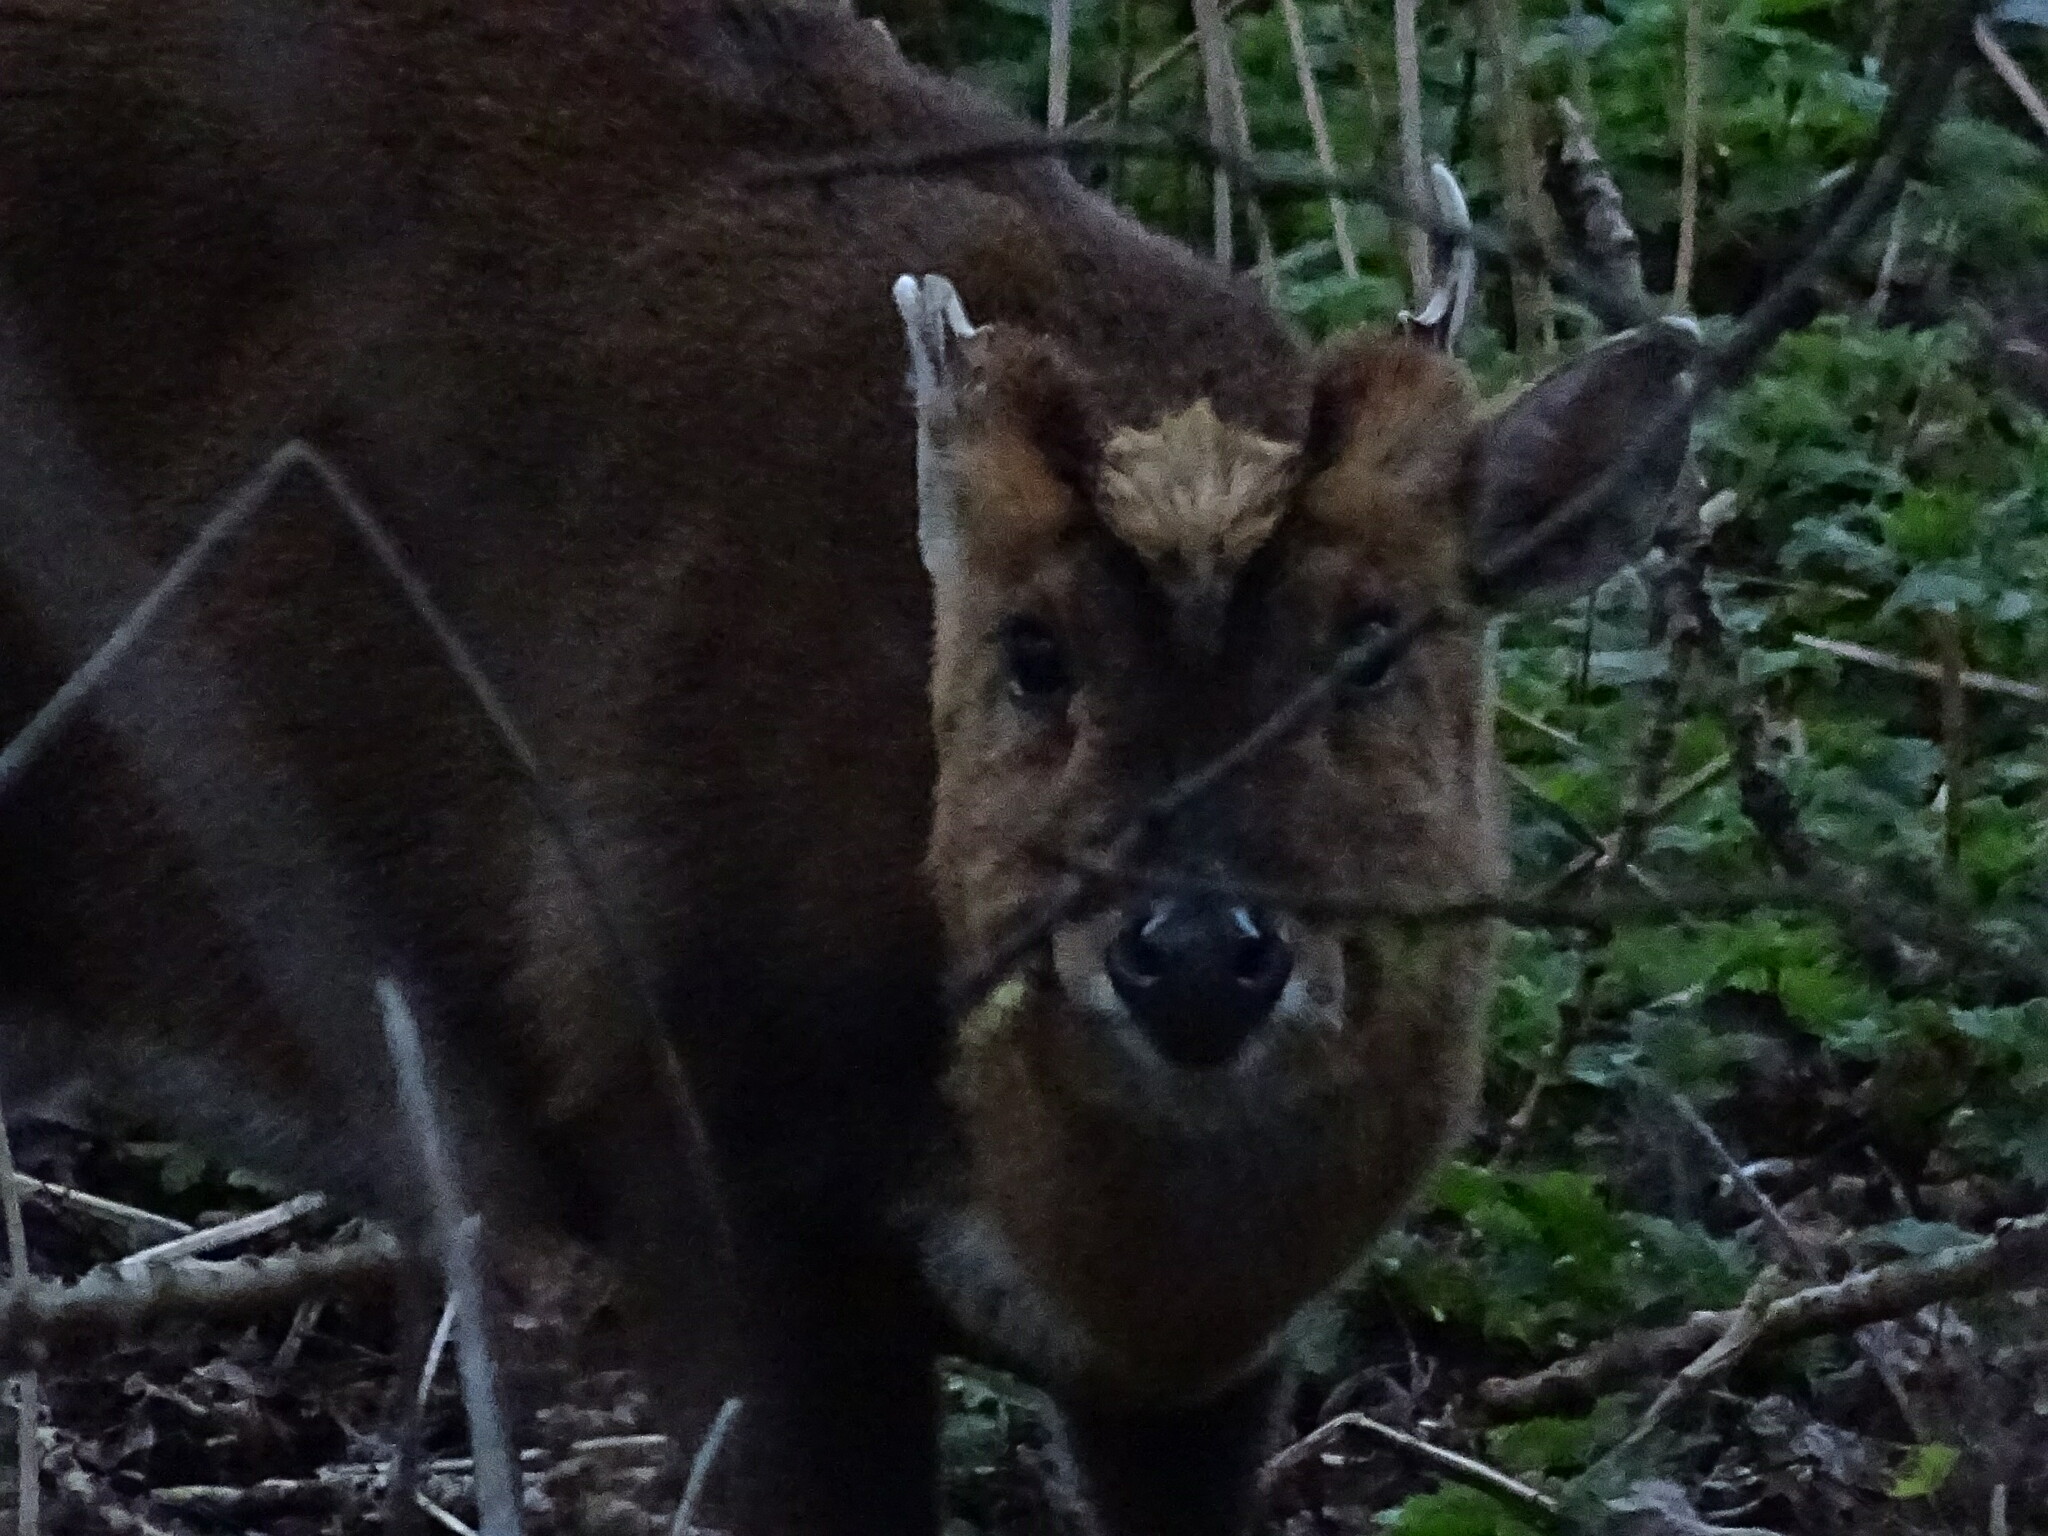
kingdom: Animalia
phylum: Chordata
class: Mammalia
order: Artiodactyla
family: Cervidae
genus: Muntiacus
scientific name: Muntiacus reevesi
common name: Reeves' muntjac
